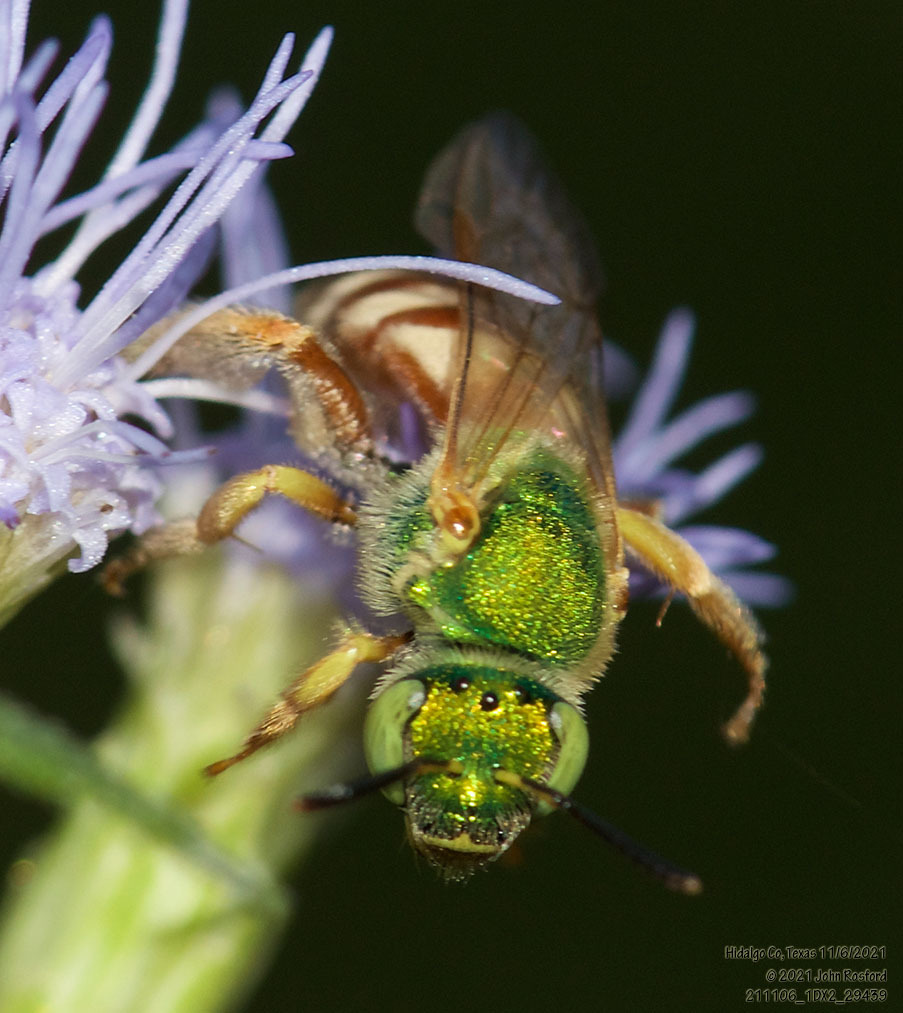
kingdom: Animalia
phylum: Arthropoda
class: Insecta
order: Hymenoptera
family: Halictidae
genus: Agapostemon
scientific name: Agapostemon melliventris
